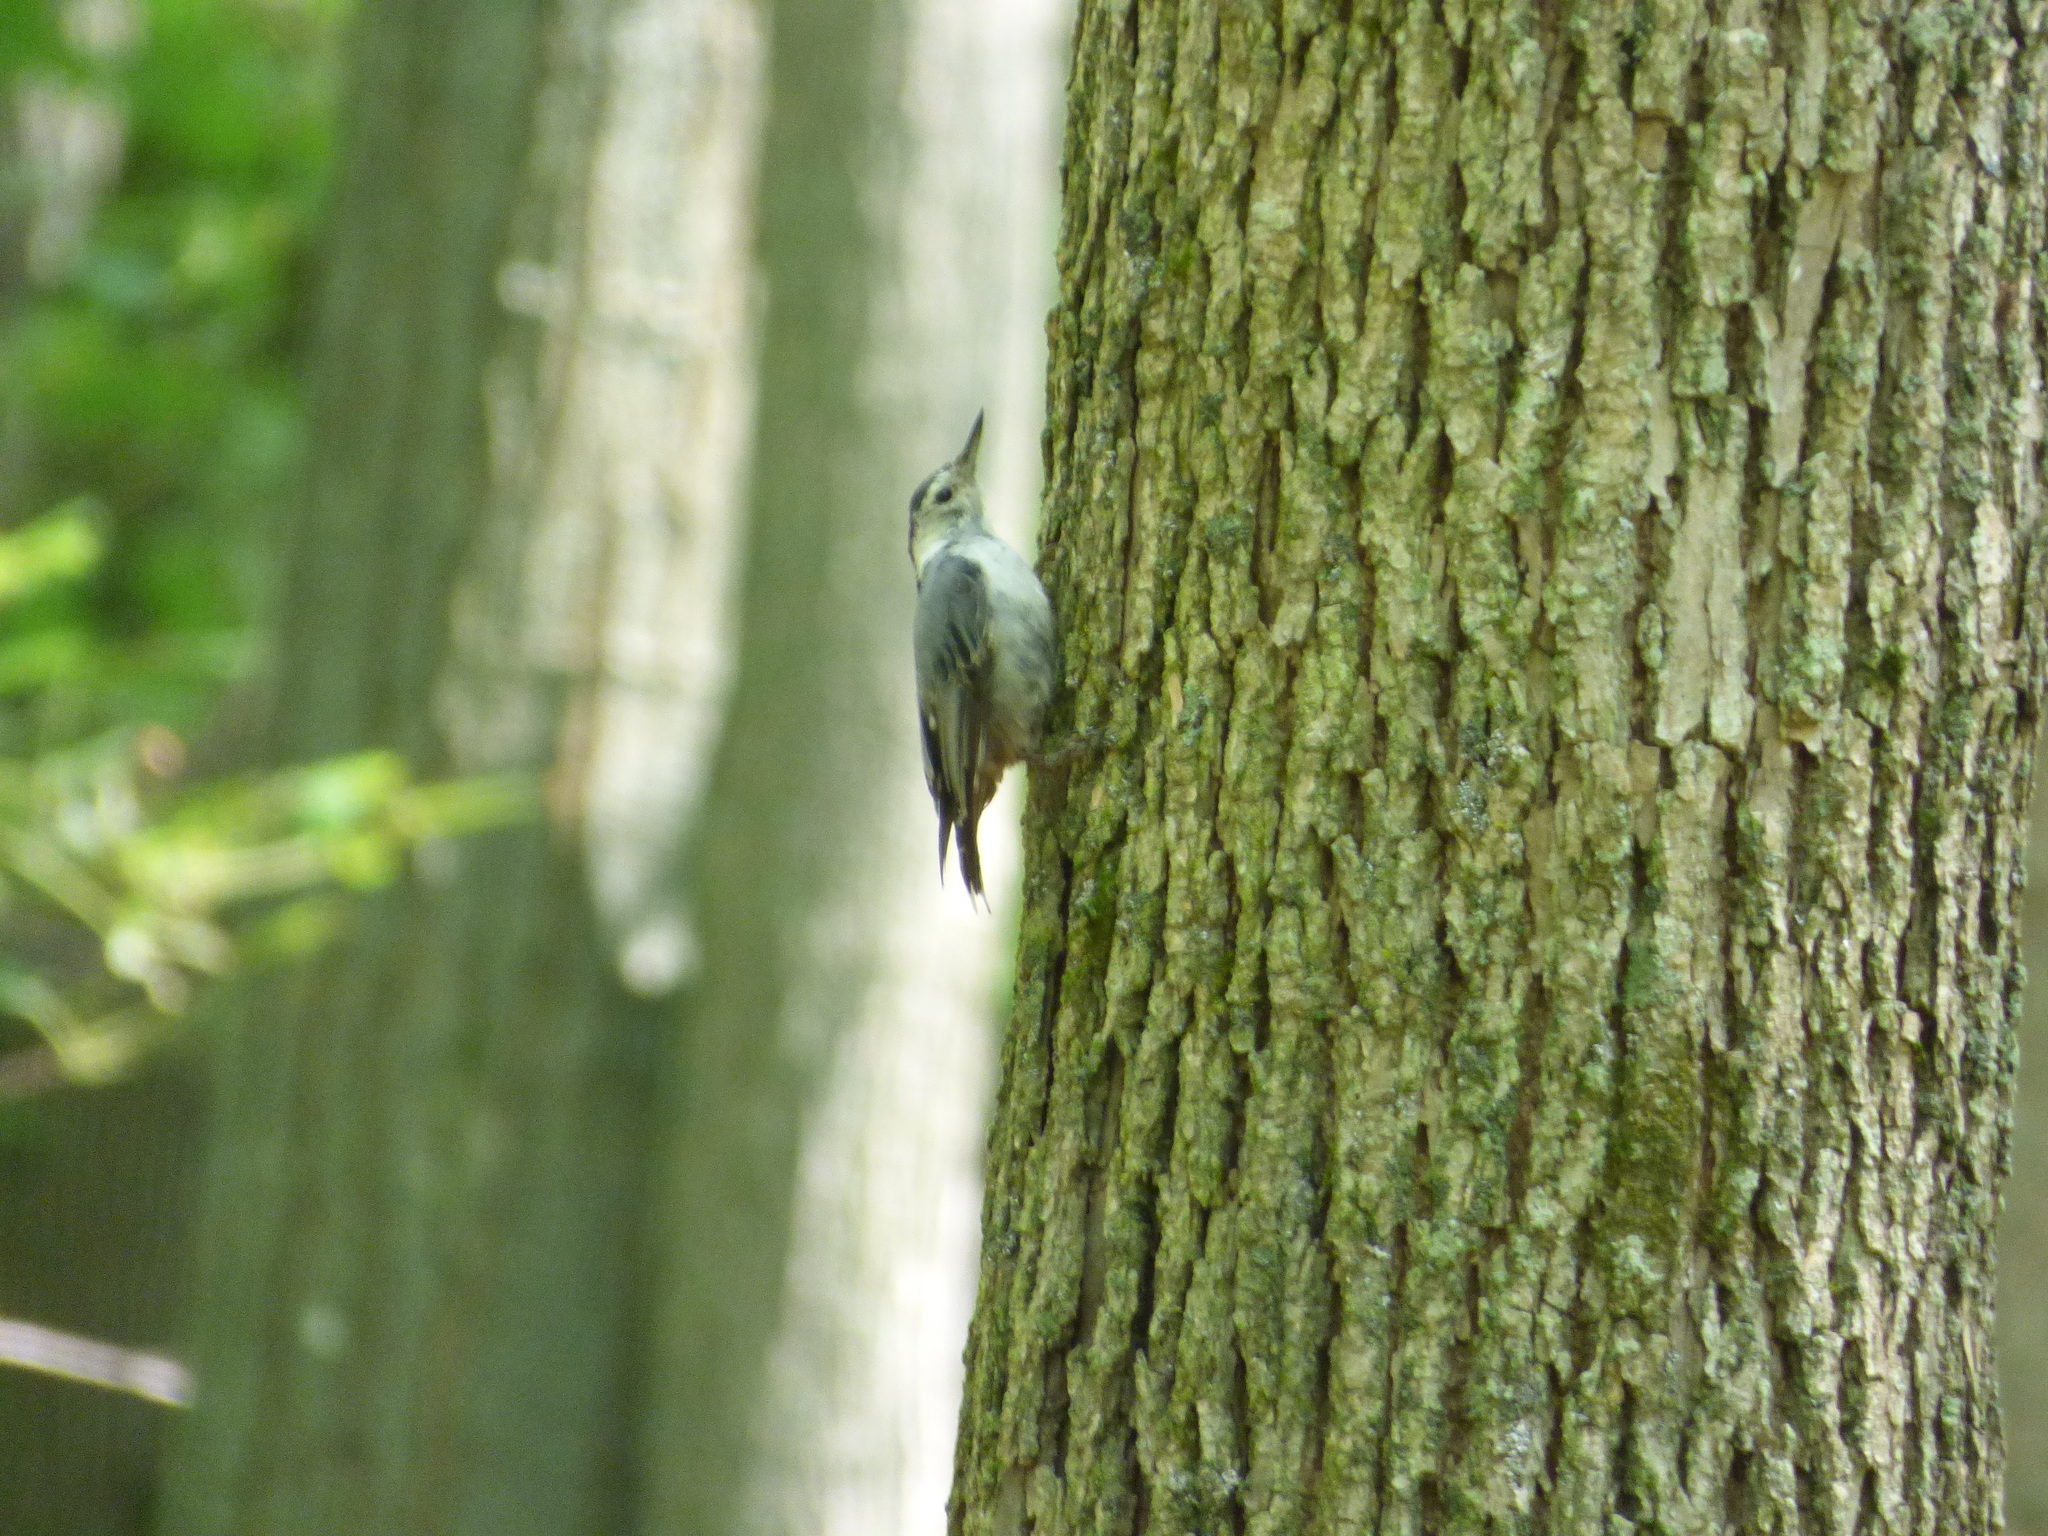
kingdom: Animalia
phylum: Chordata
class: Aves
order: Passeriformes
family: Sittidae
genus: Sitta
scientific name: Sitta carolinensis
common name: White-breasted nuthatch
